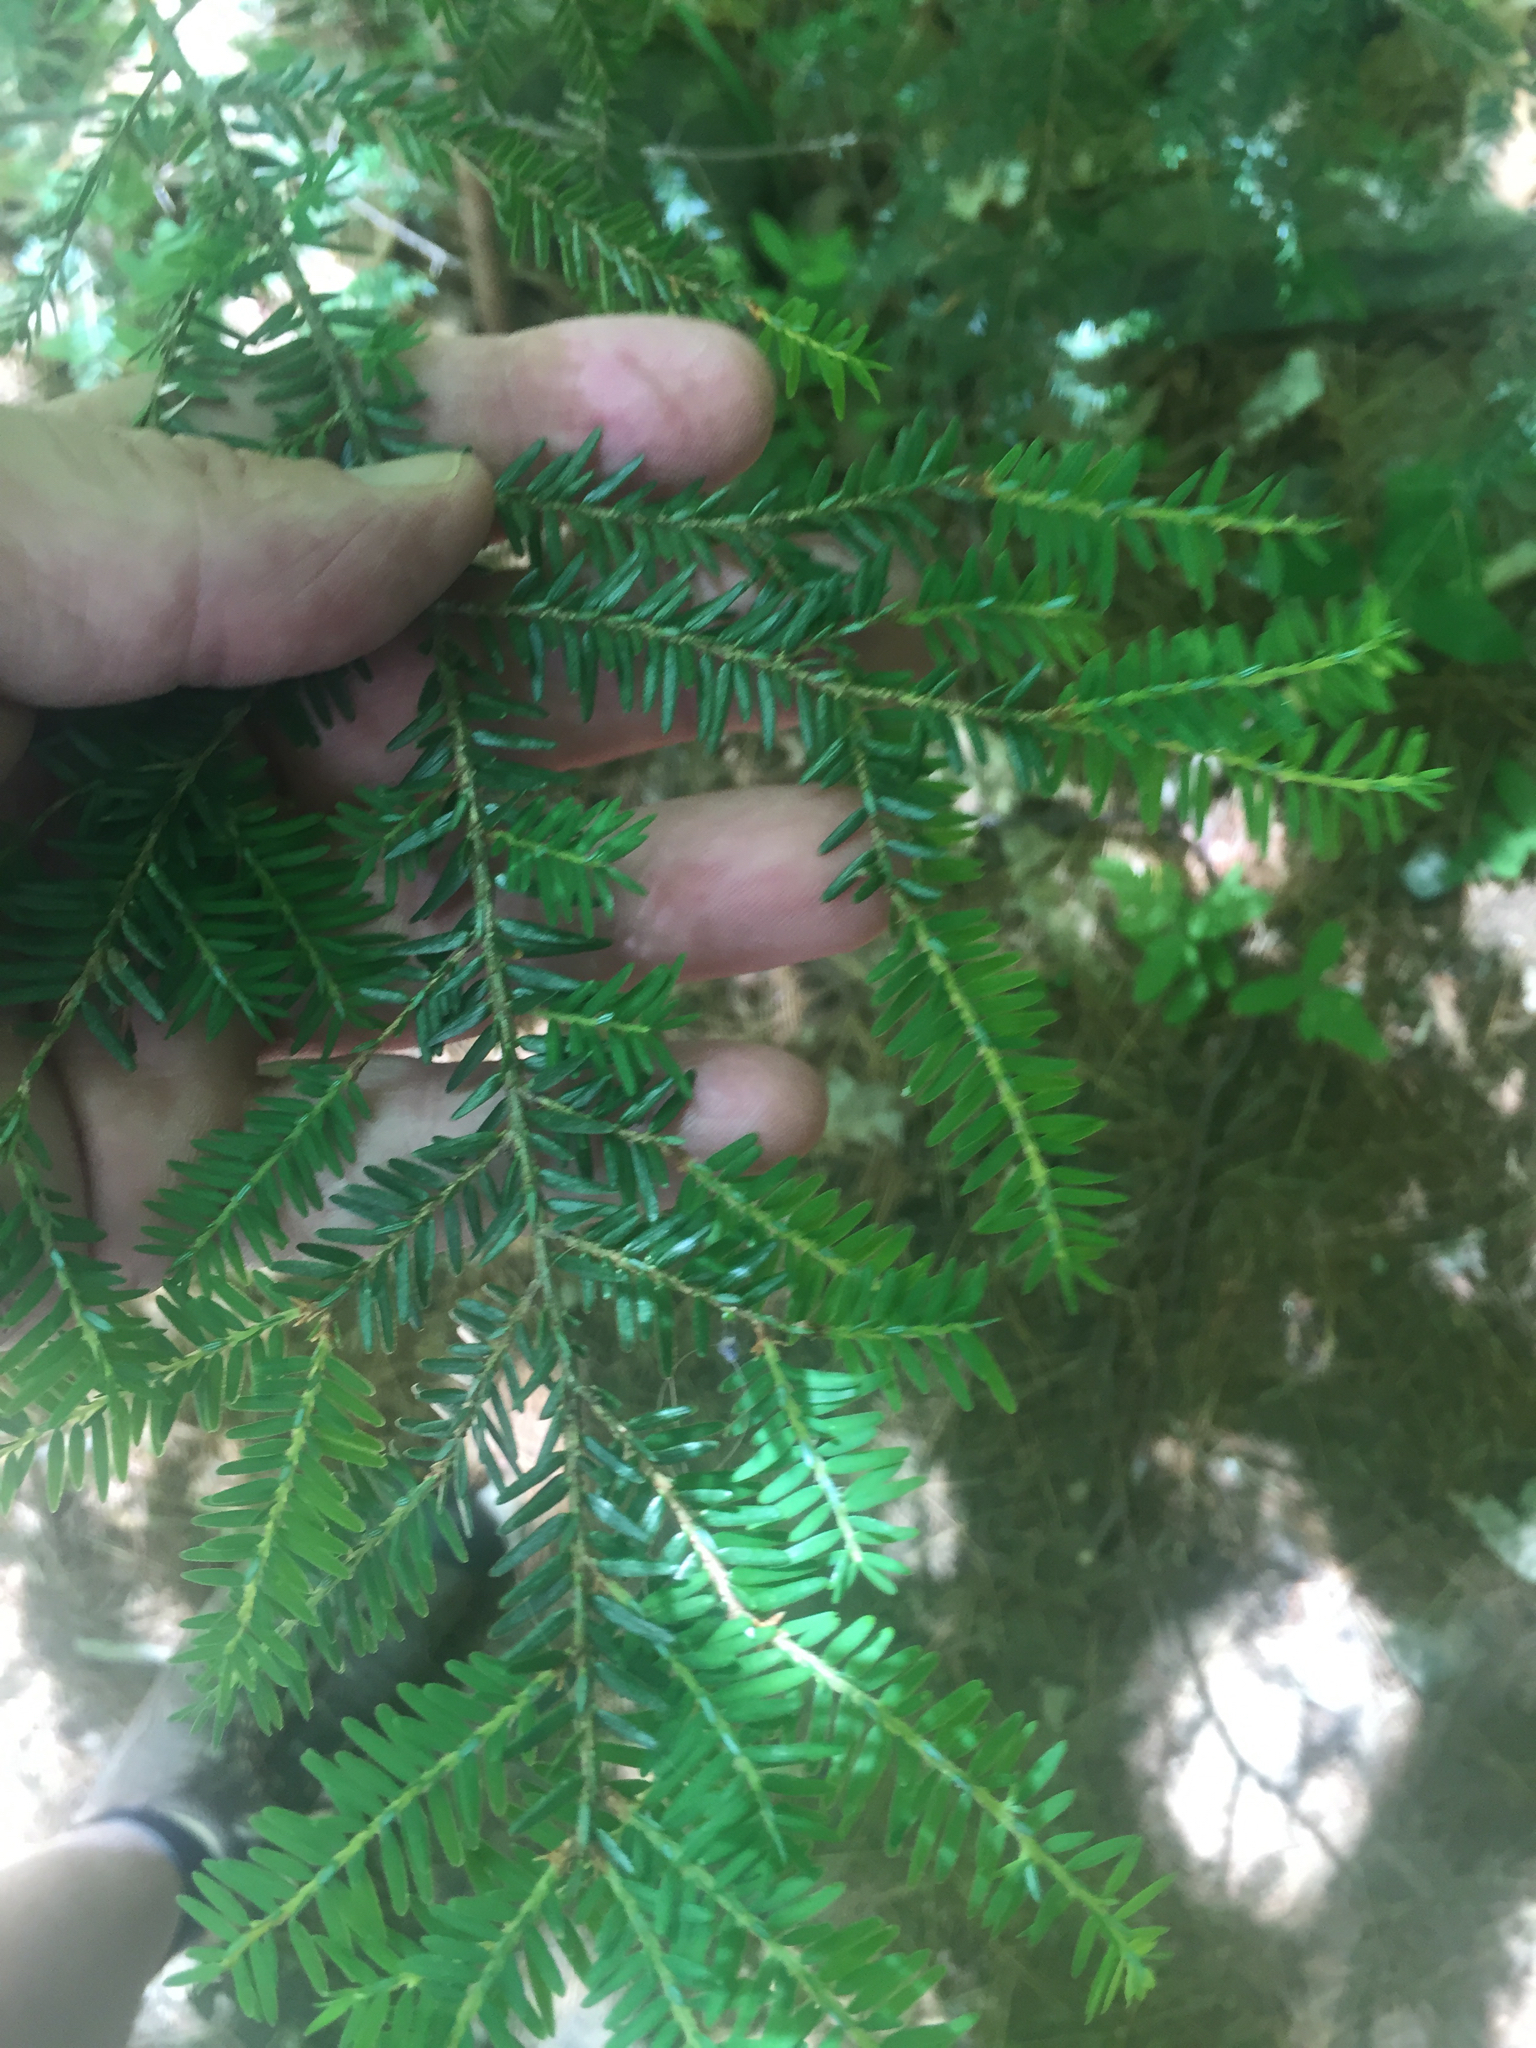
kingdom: Plantae
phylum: Tracheophyta
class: Pinopsida
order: Pinales
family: Pinaceae
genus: Tsuga
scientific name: Tsuga canadensis
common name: Eastern hemlock
